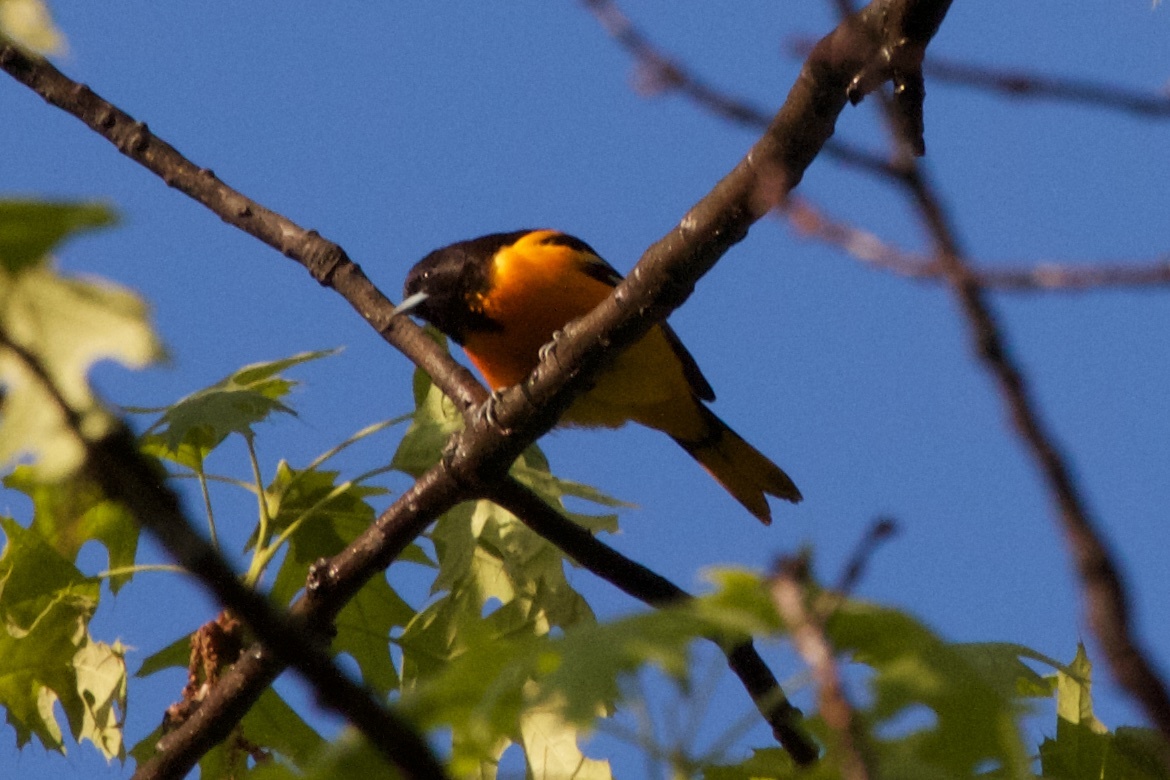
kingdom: Animalia
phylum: Chordata
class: Aves
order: Passeriformes
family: Icteridae
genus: Icterus
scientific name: Icterus galbula
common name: Baltimore oriole
